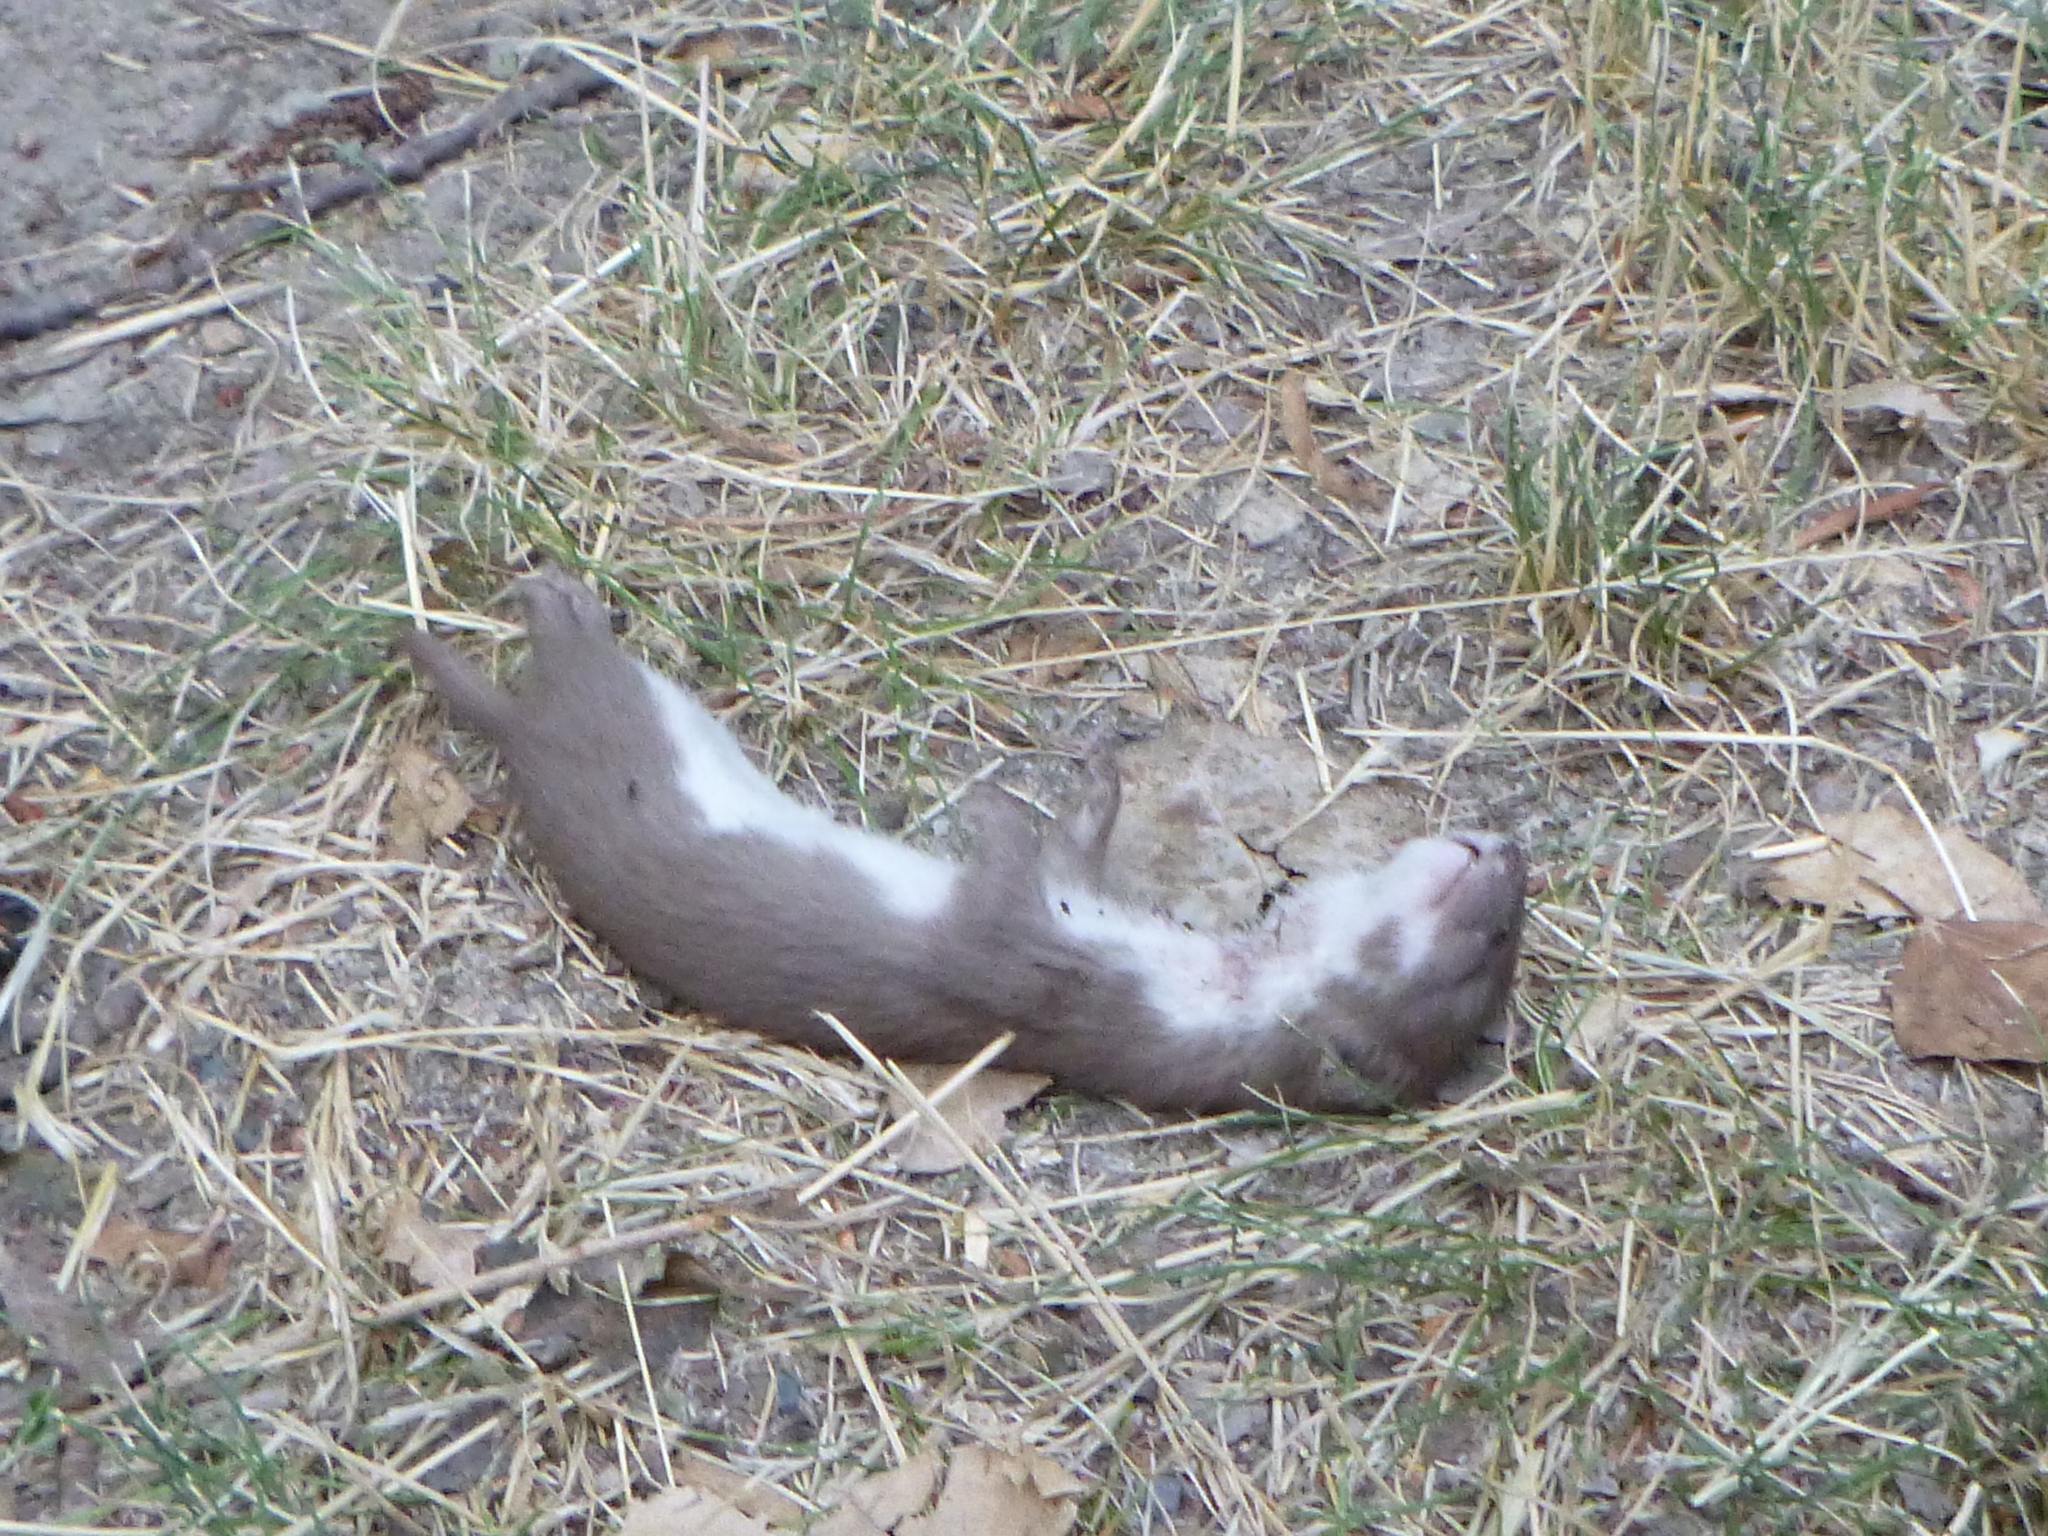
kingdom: Animalia
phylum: Chordata
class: Mammalia
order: Carnivora
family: Mustelidae
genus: Mustela
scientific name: Mustela nivalis
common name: Least weasel
